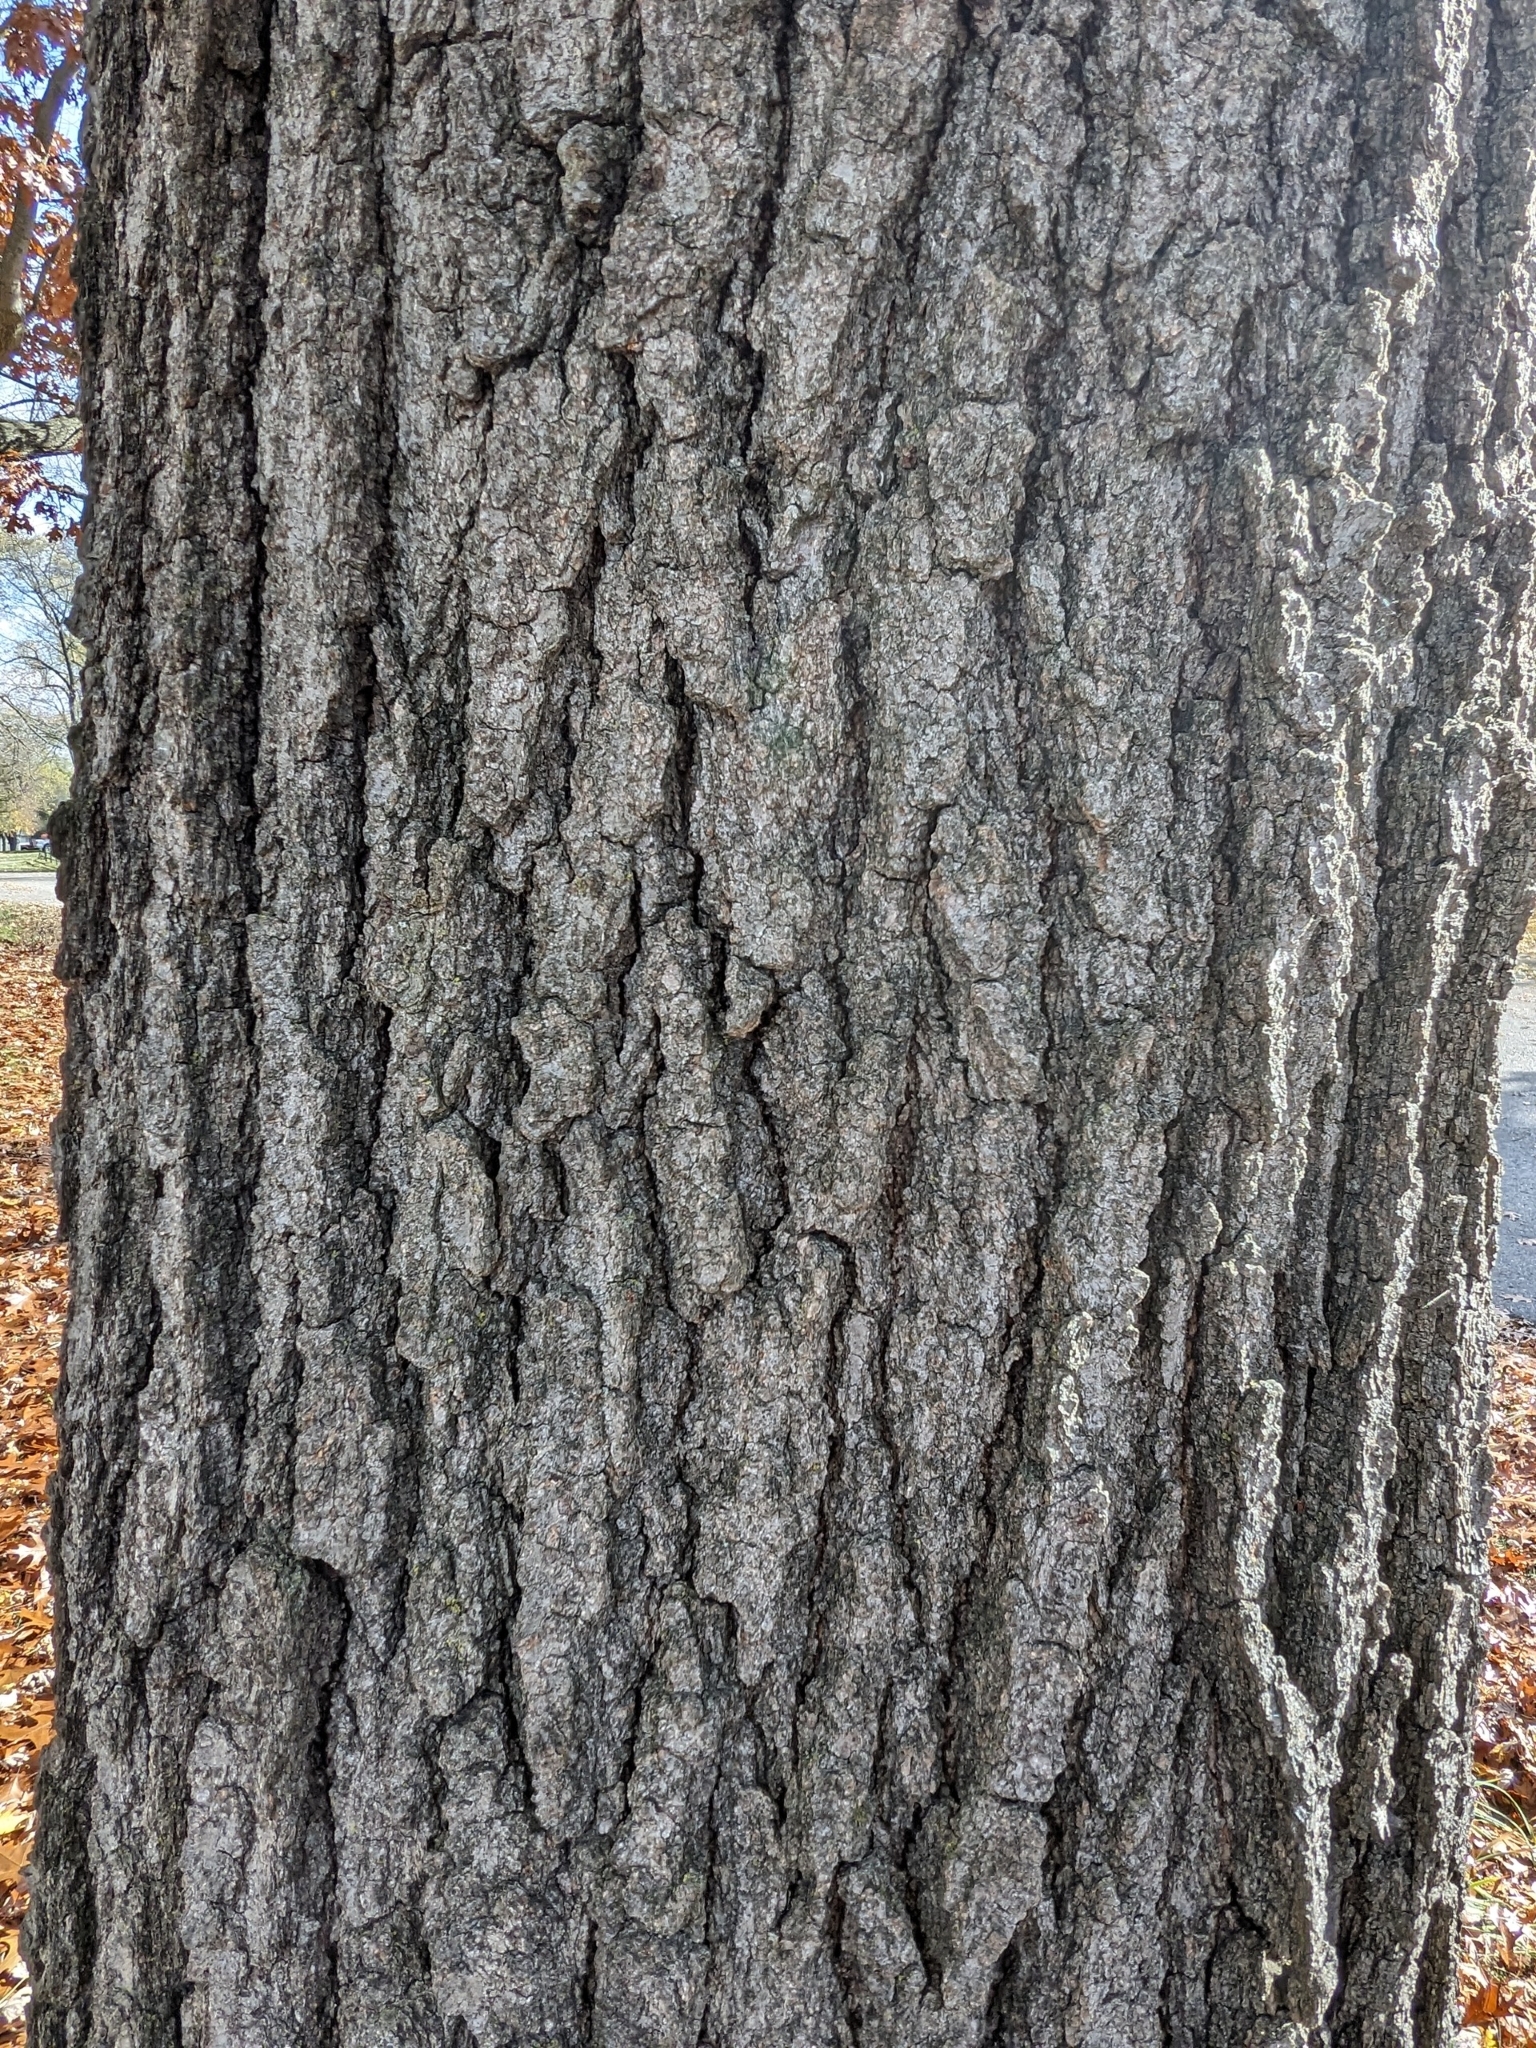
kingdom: Plantae
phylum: Tracheophyta
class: Magnoliopsida
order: Fagales
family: Fagaceae
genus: Quercus
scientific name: Quercus rubra
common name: Red oak
